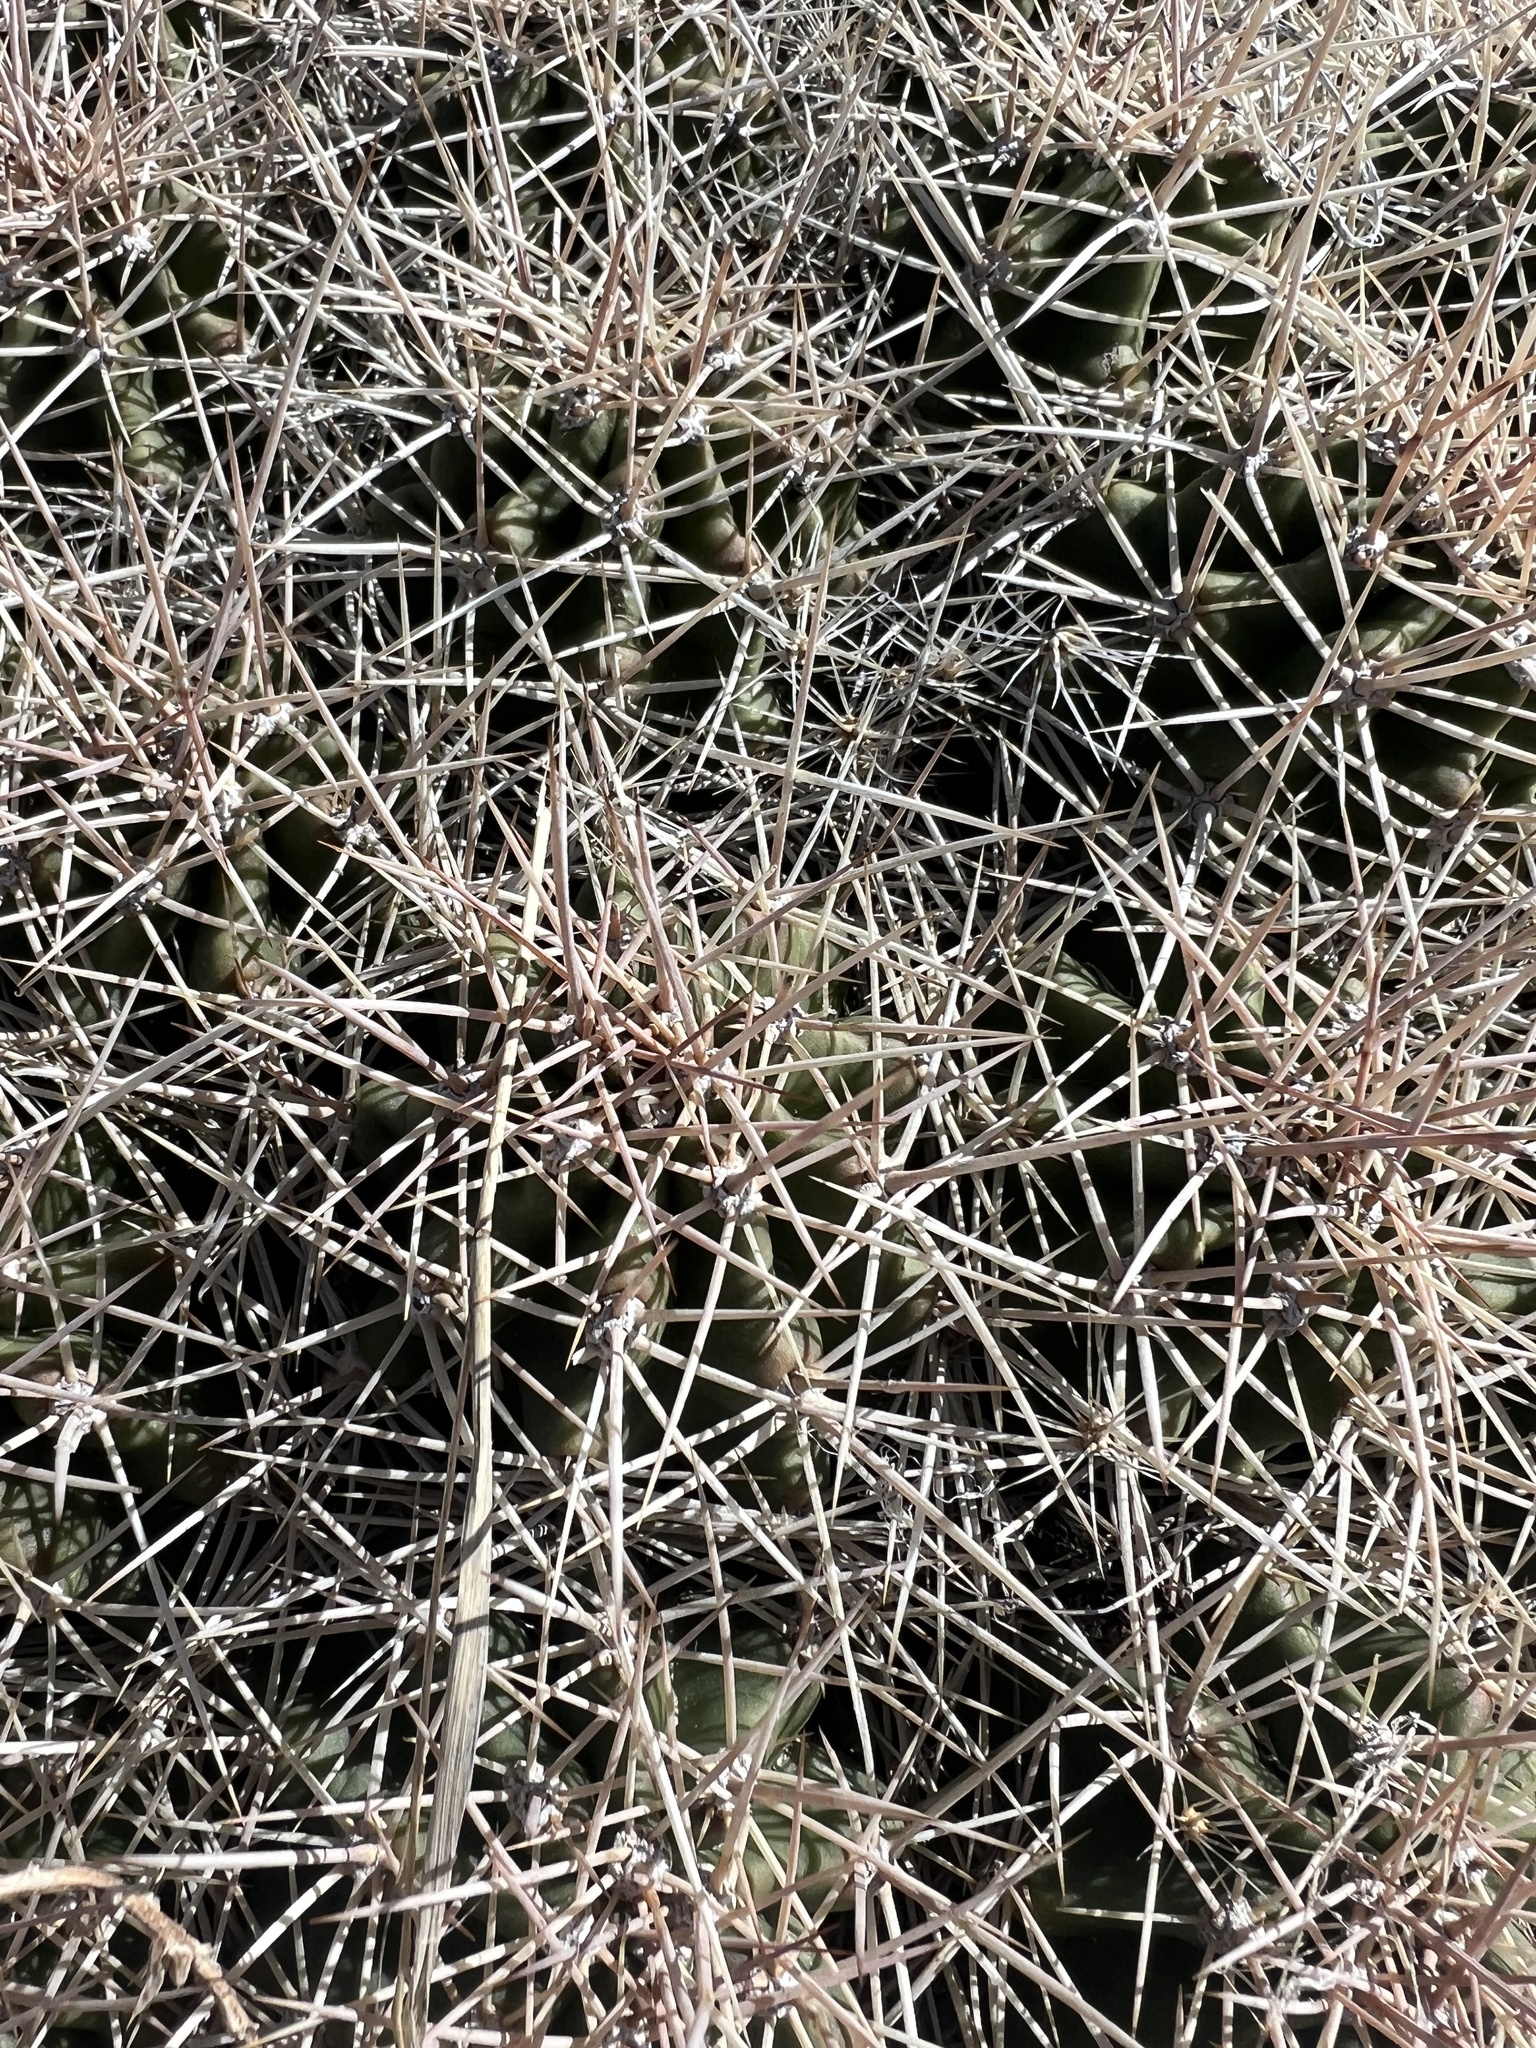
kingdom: Plantae
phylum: Tracheophyta
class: Magnoliopsida
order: Caryophyllales
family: Cactaceae
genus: Echinocereus
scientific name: Echinocereus triglochidiatus
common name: Claretcup hedgehog
